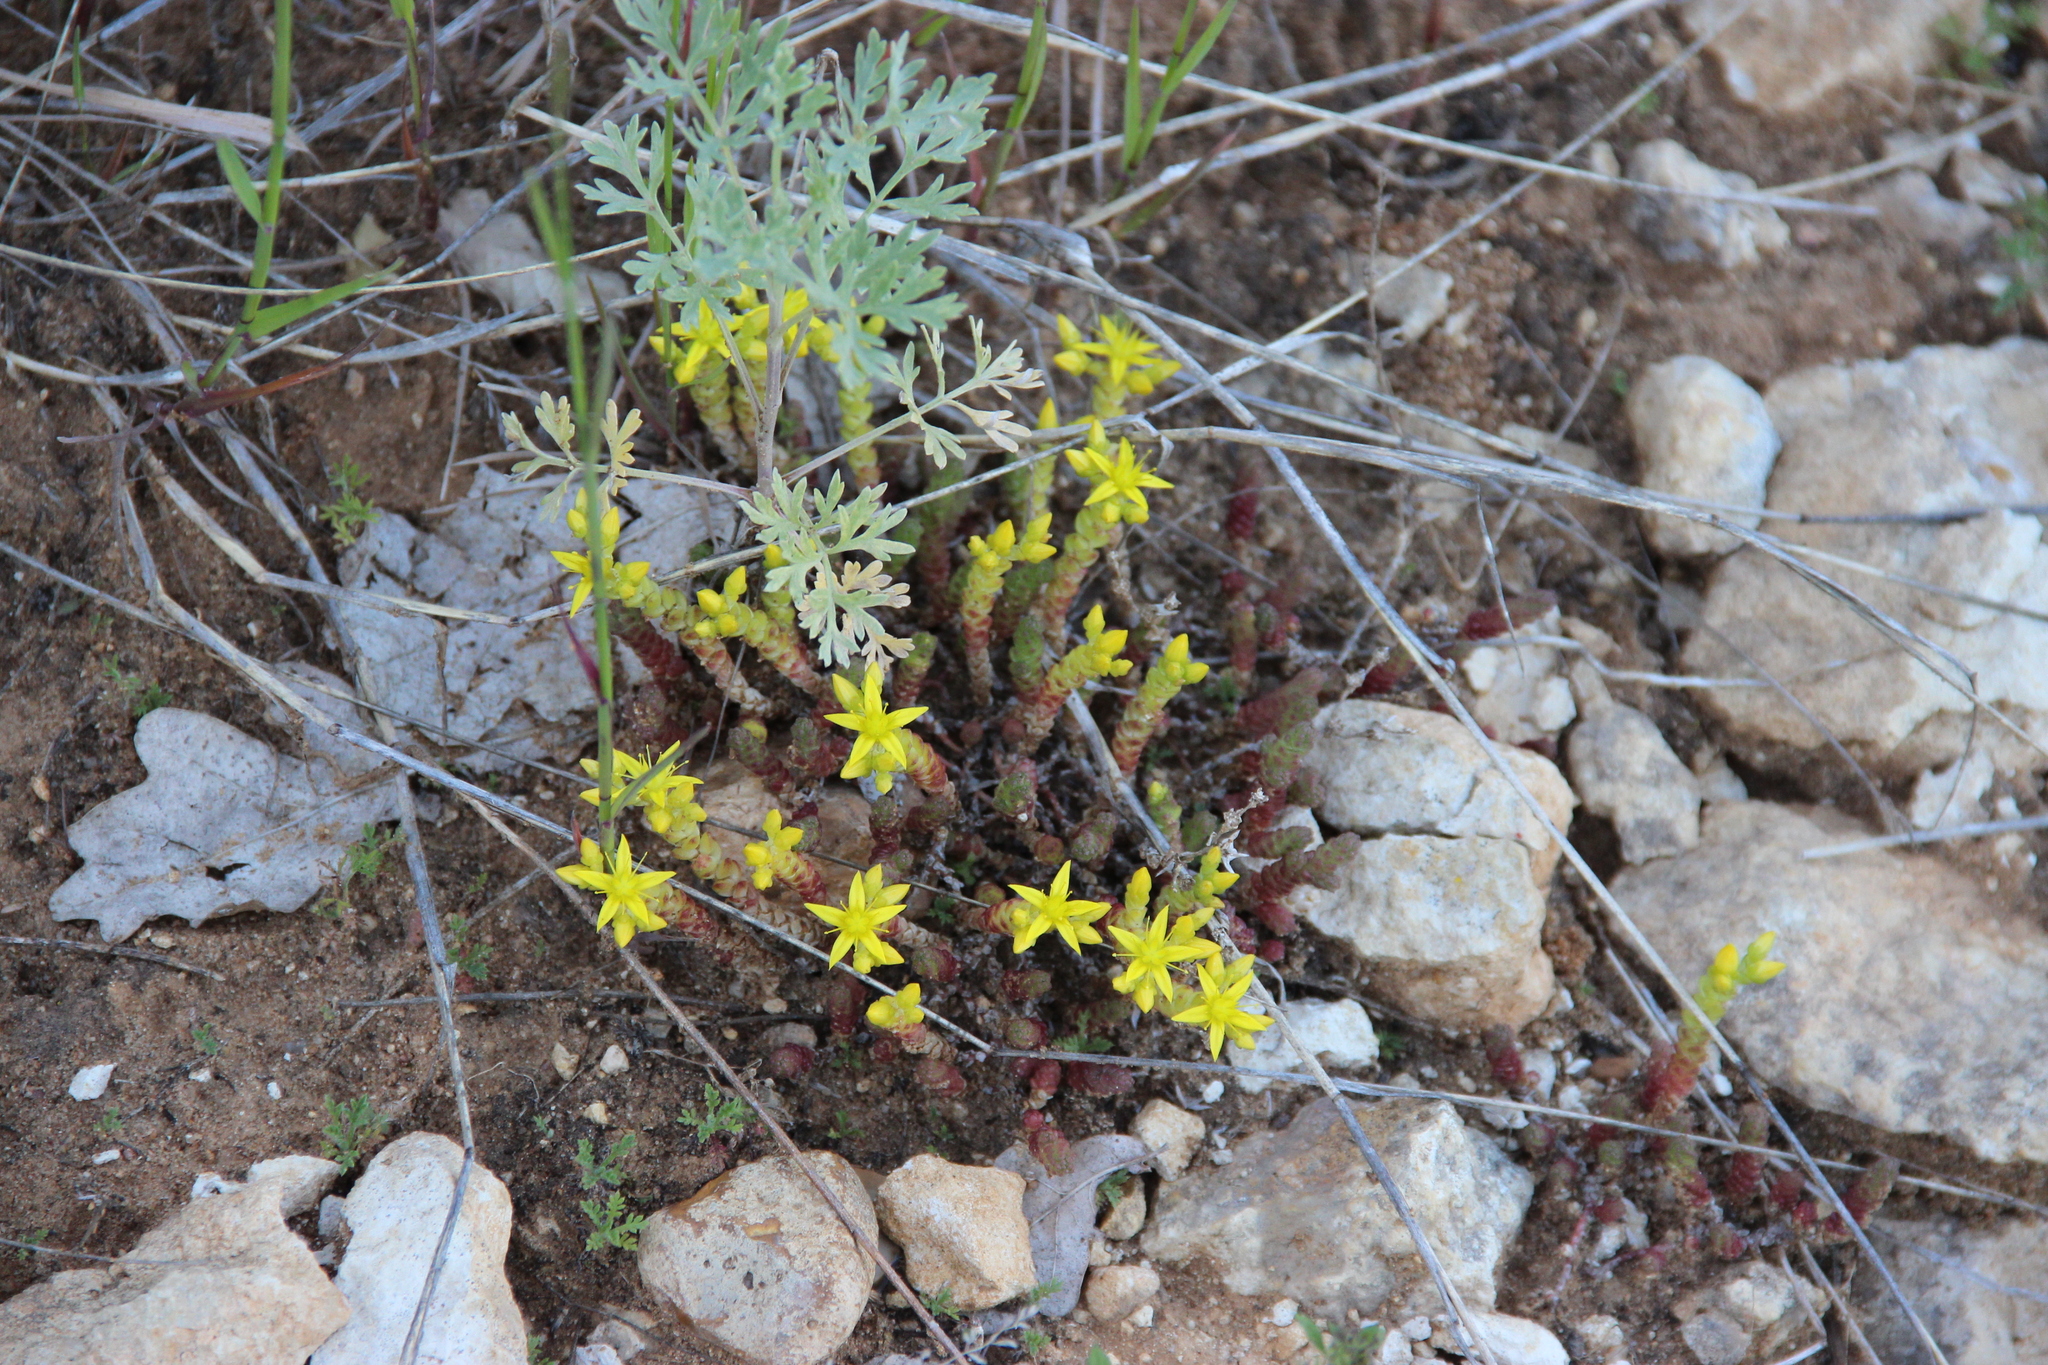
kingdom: Plantae
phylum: Tracheophyta
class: Magnoliopsida
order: Saxifragales
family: Crassulaceae
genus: Sedum
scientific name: Sedum acre
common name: Biting stonecrop
